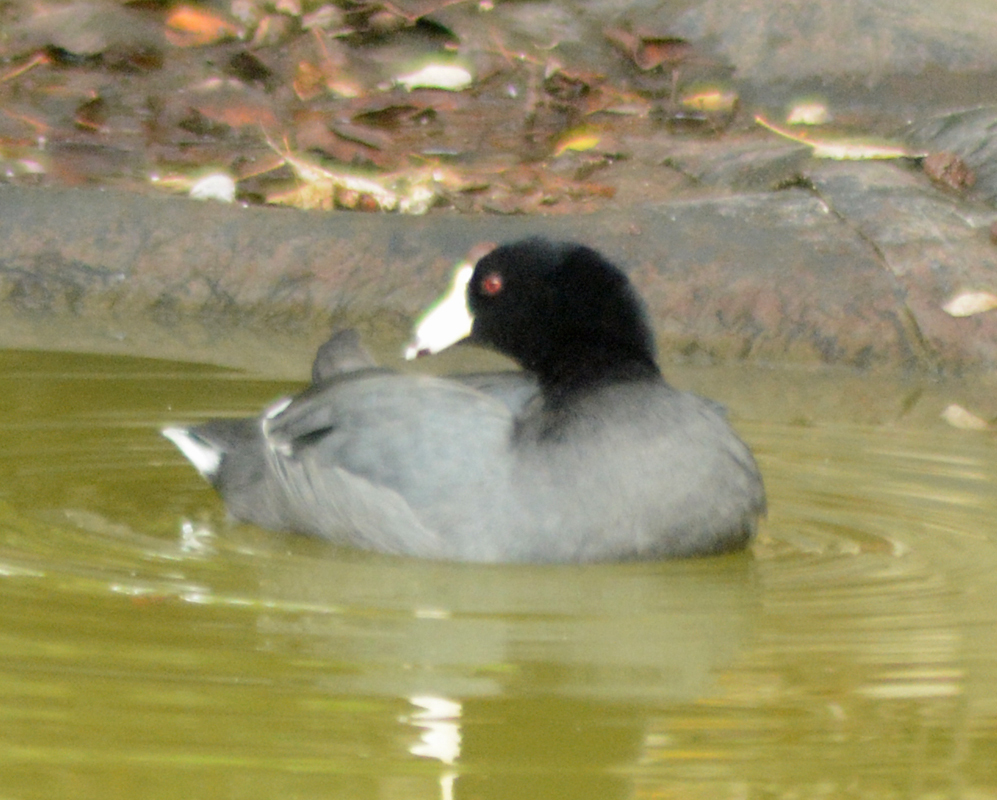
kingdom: Animalia
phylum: Chordata
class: Aves
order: Gruiformes
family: Rallidae
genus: Fulica
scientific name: Fulica americana
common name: American coot
